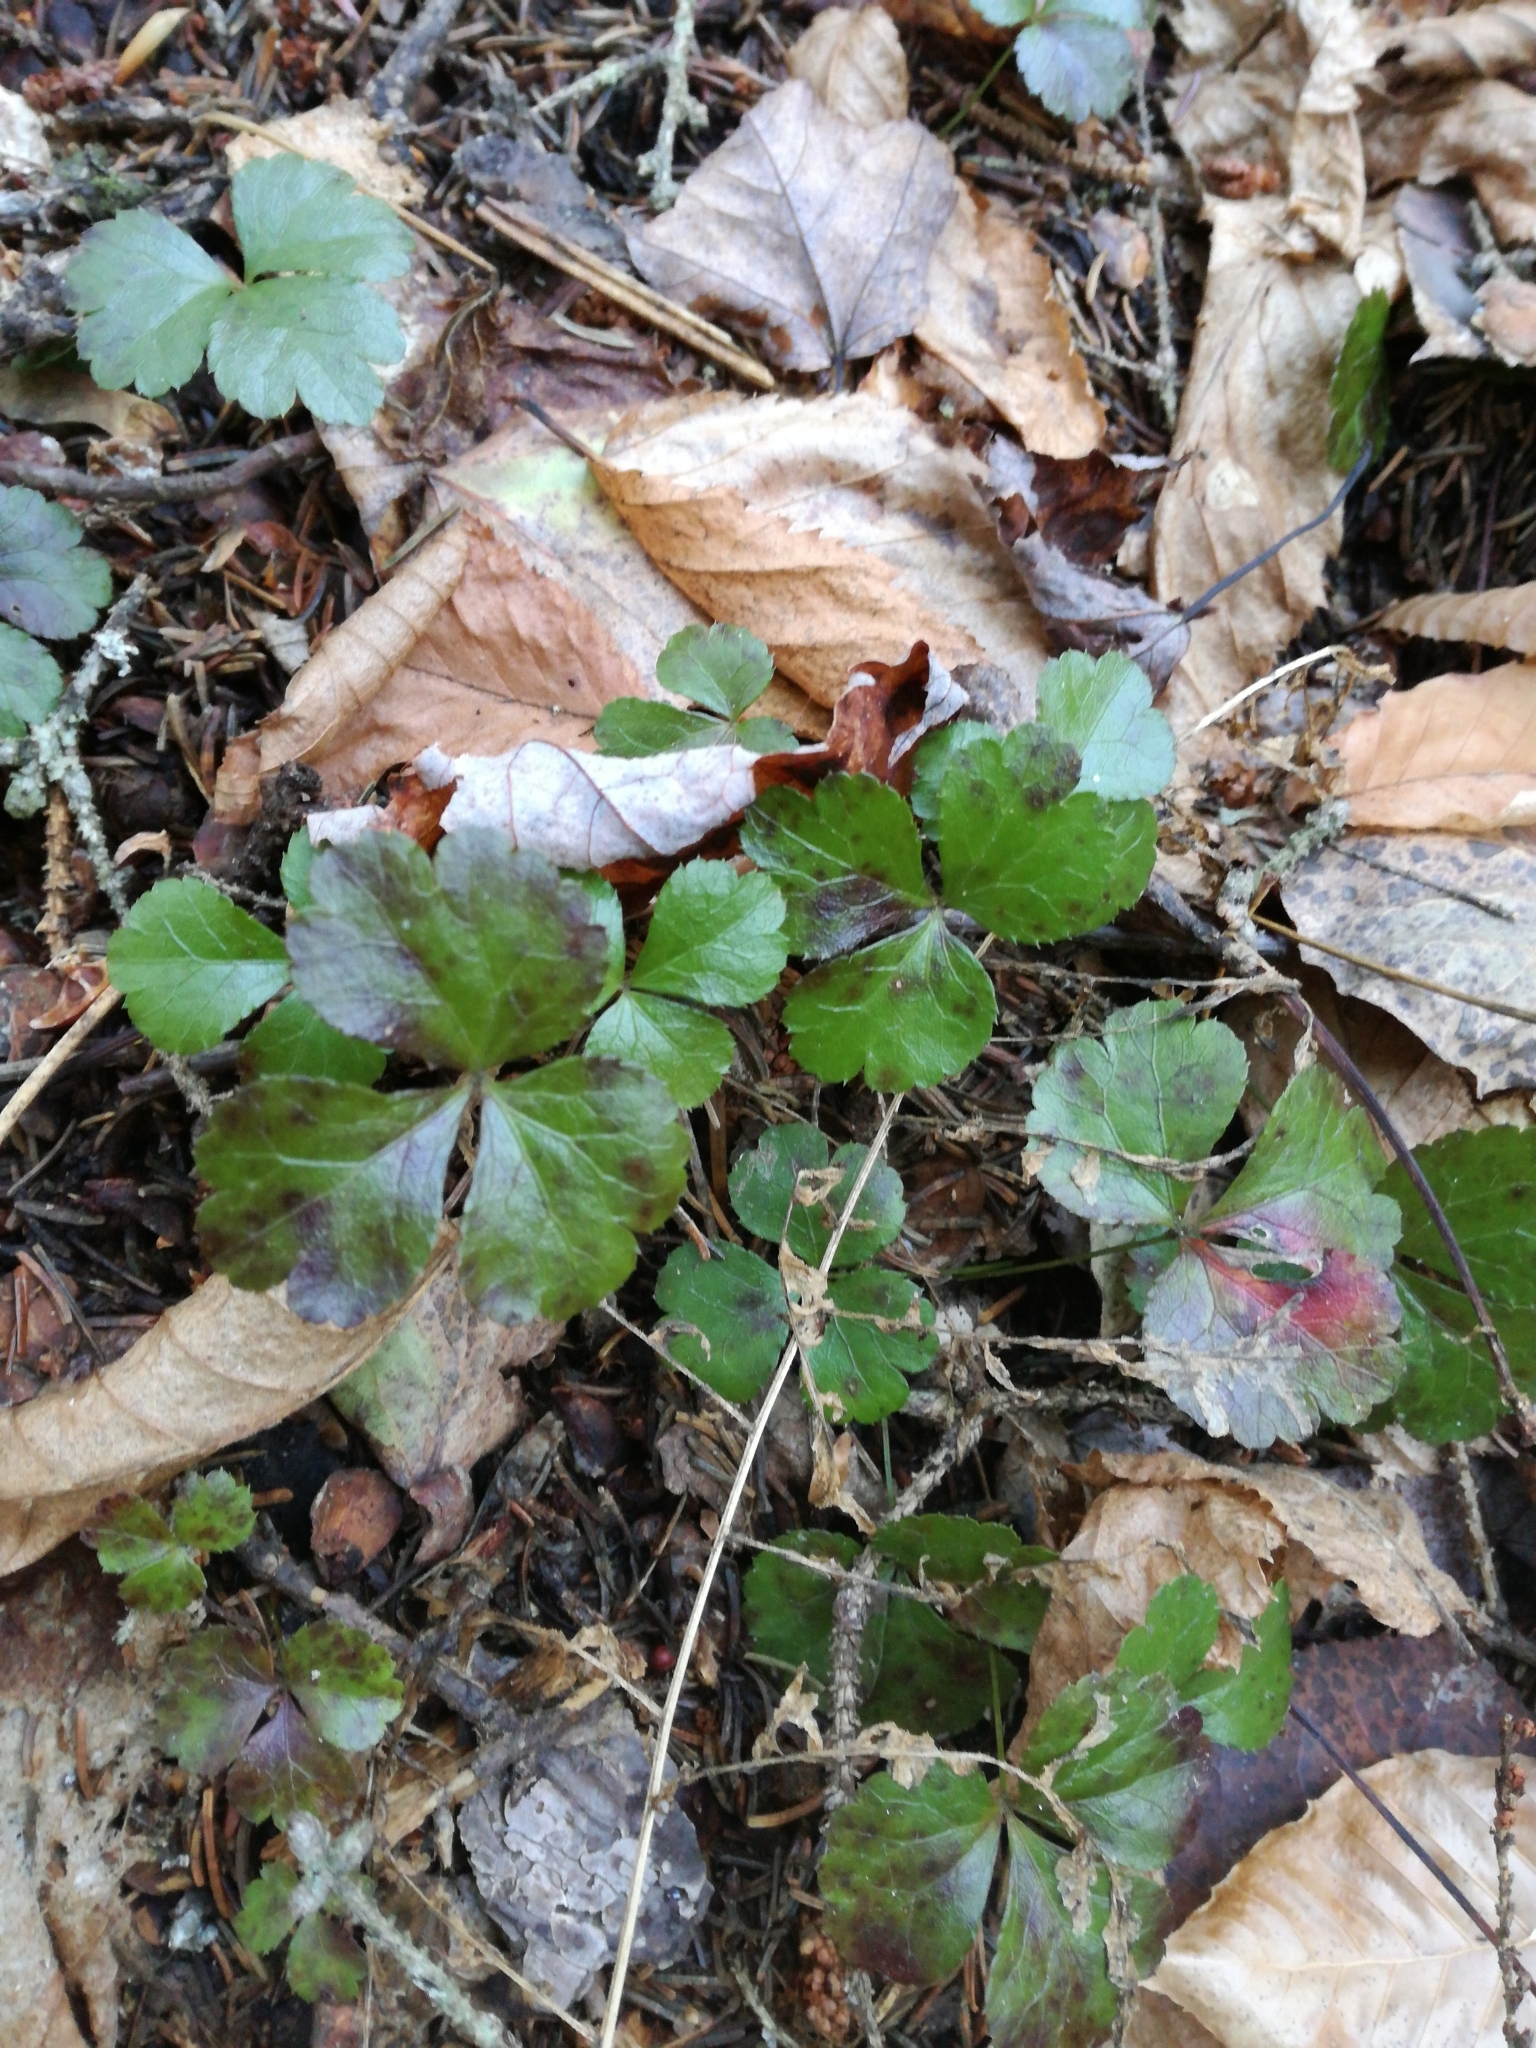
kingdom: Plantae
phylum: Tracheophyta
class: Magnoliopsida
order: Ranunculales
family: Ranunculaceae
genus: Coptis
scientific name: Coptis trifolia
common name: Canker-root
